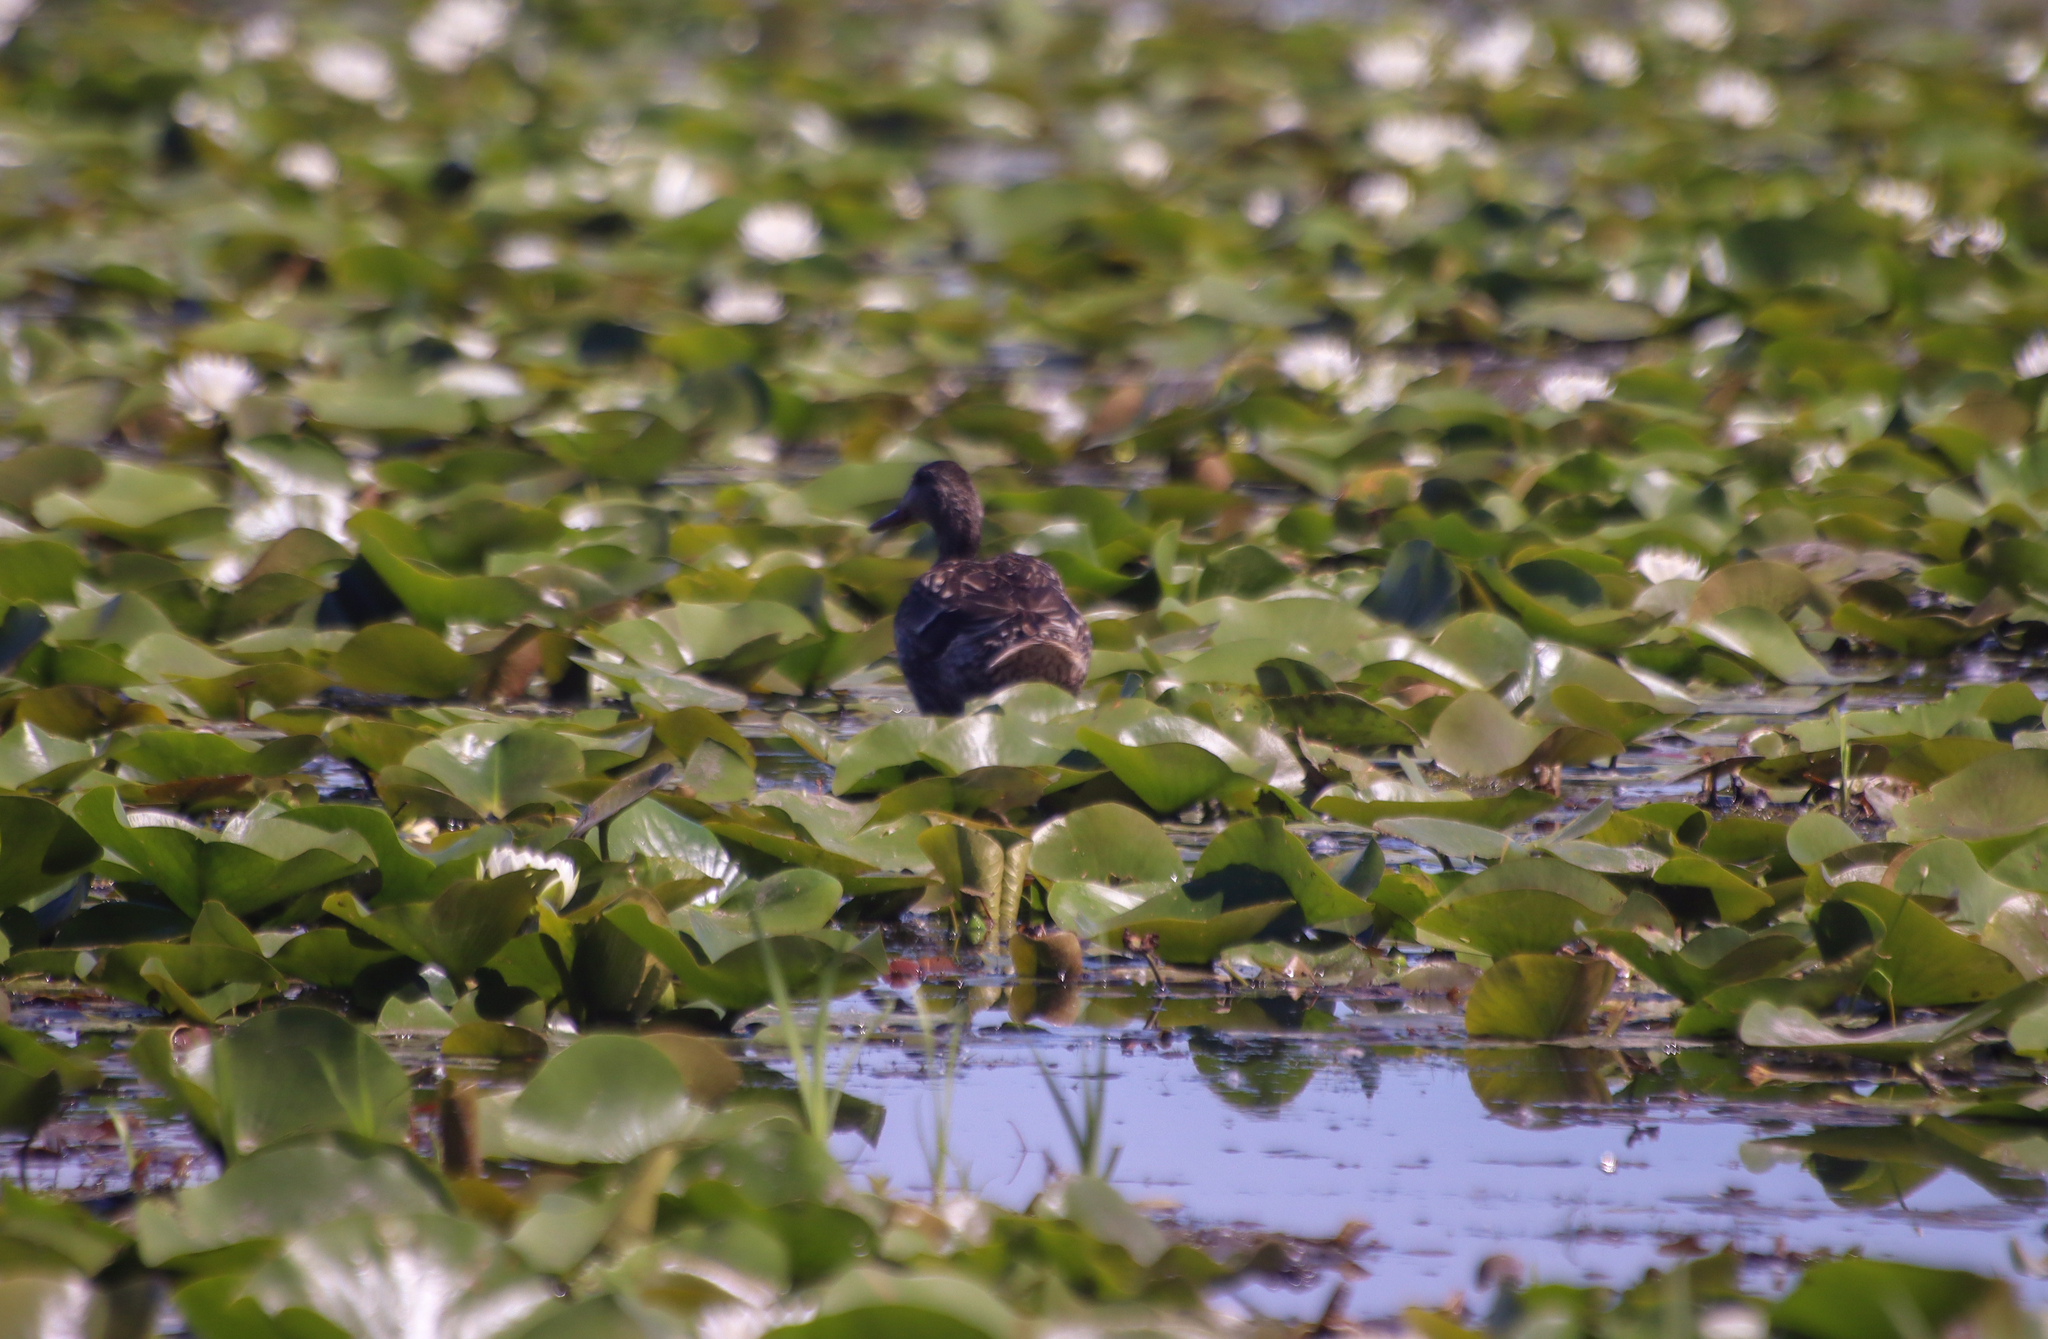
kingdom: Animalia
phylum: Chordata
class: Aves
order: Anseriformes
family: Anatidae
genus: Anas
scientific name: Anas platyrhynchos
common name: Mallard
